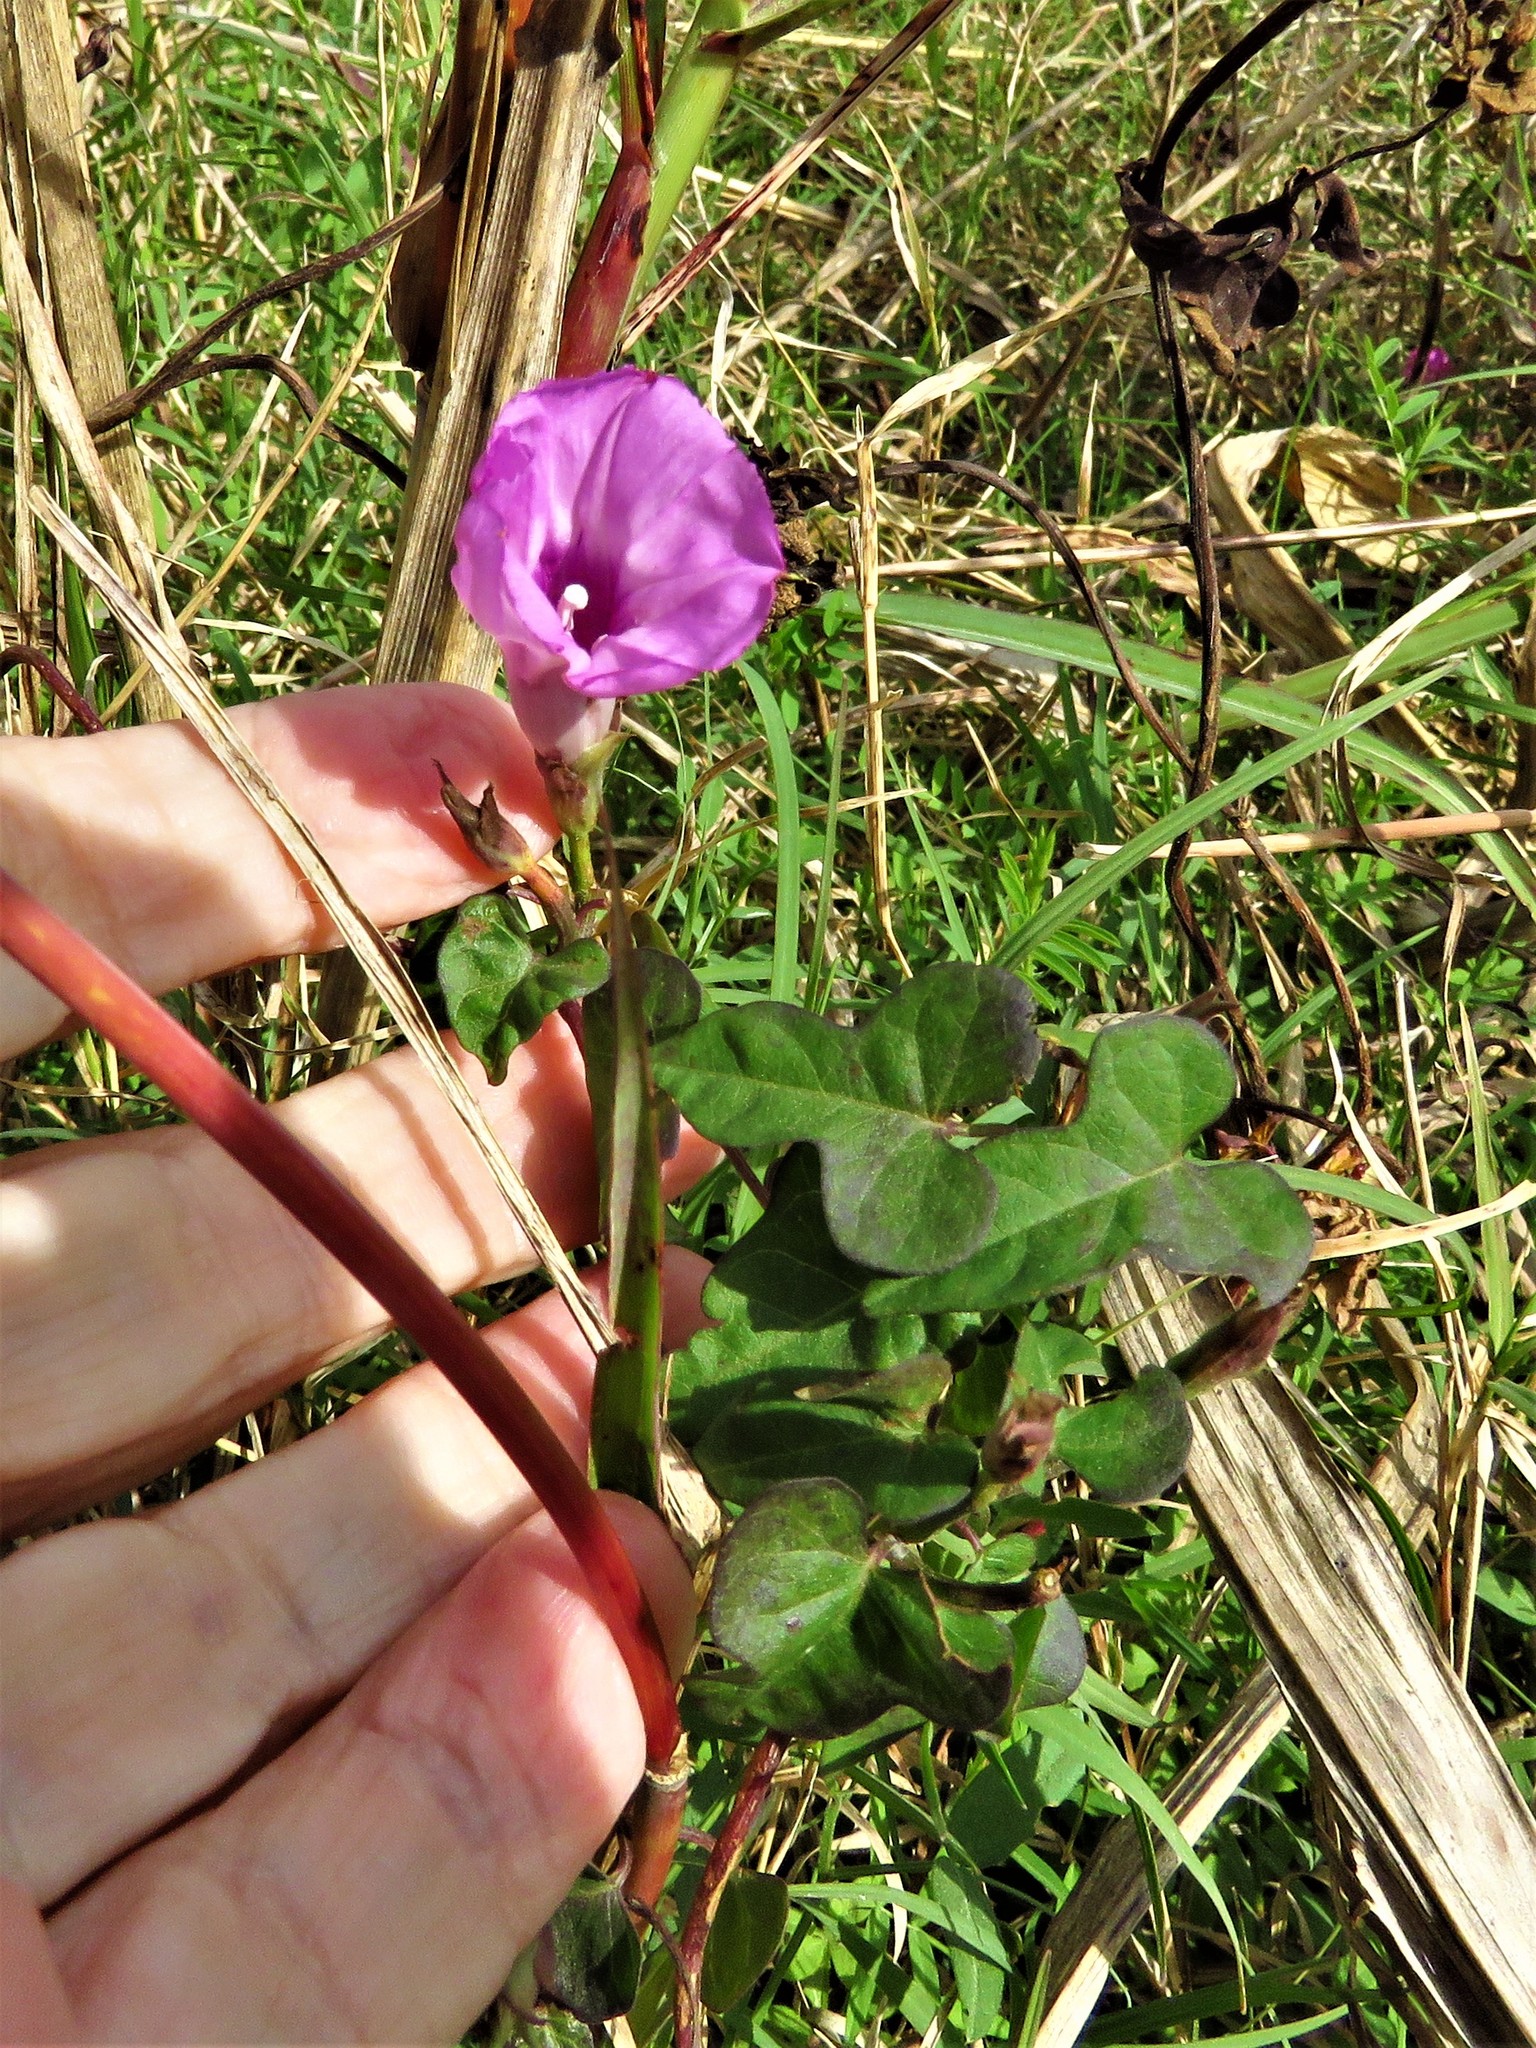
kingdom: Plantae
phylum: Tracheophyta
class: Magnoliopsida
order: Solanales
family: Convolvulaceae
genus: Ipomoea
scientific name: Ipomoea cordatotriloba
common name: Cotton morning glory
